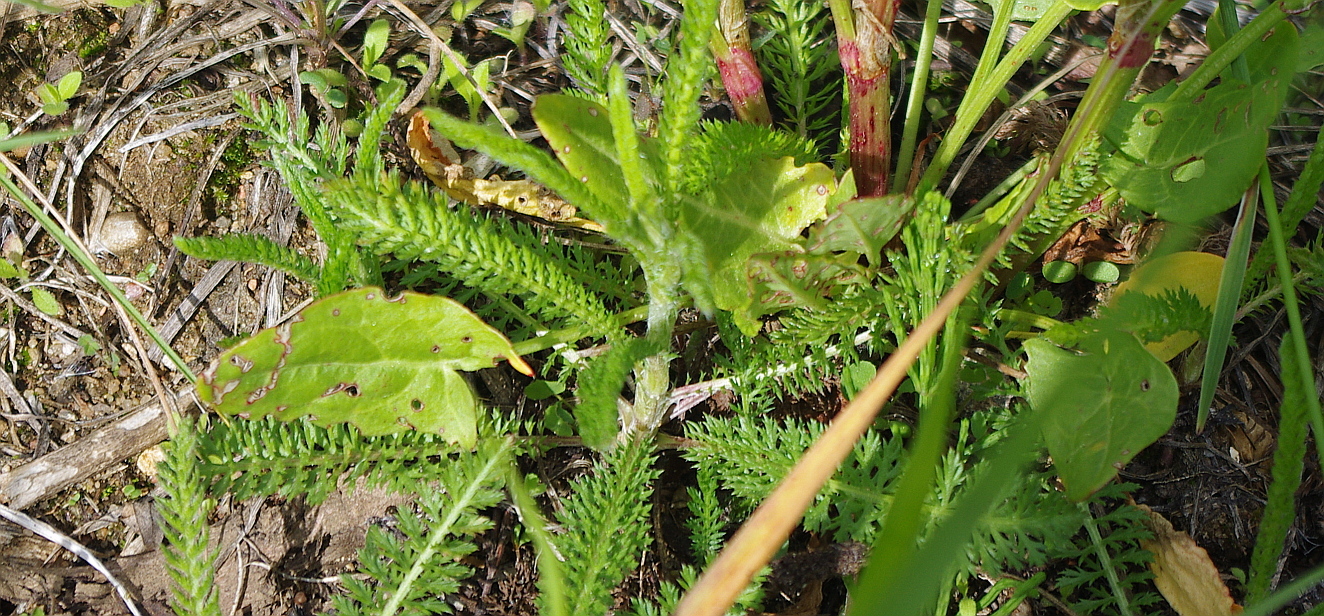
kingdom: Plantae
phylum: Tracheophyta
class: Magnoliopsida
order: Asterales
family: Asteraceae
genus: Achillea
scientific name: Achillea millefolium
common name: Yarrow
